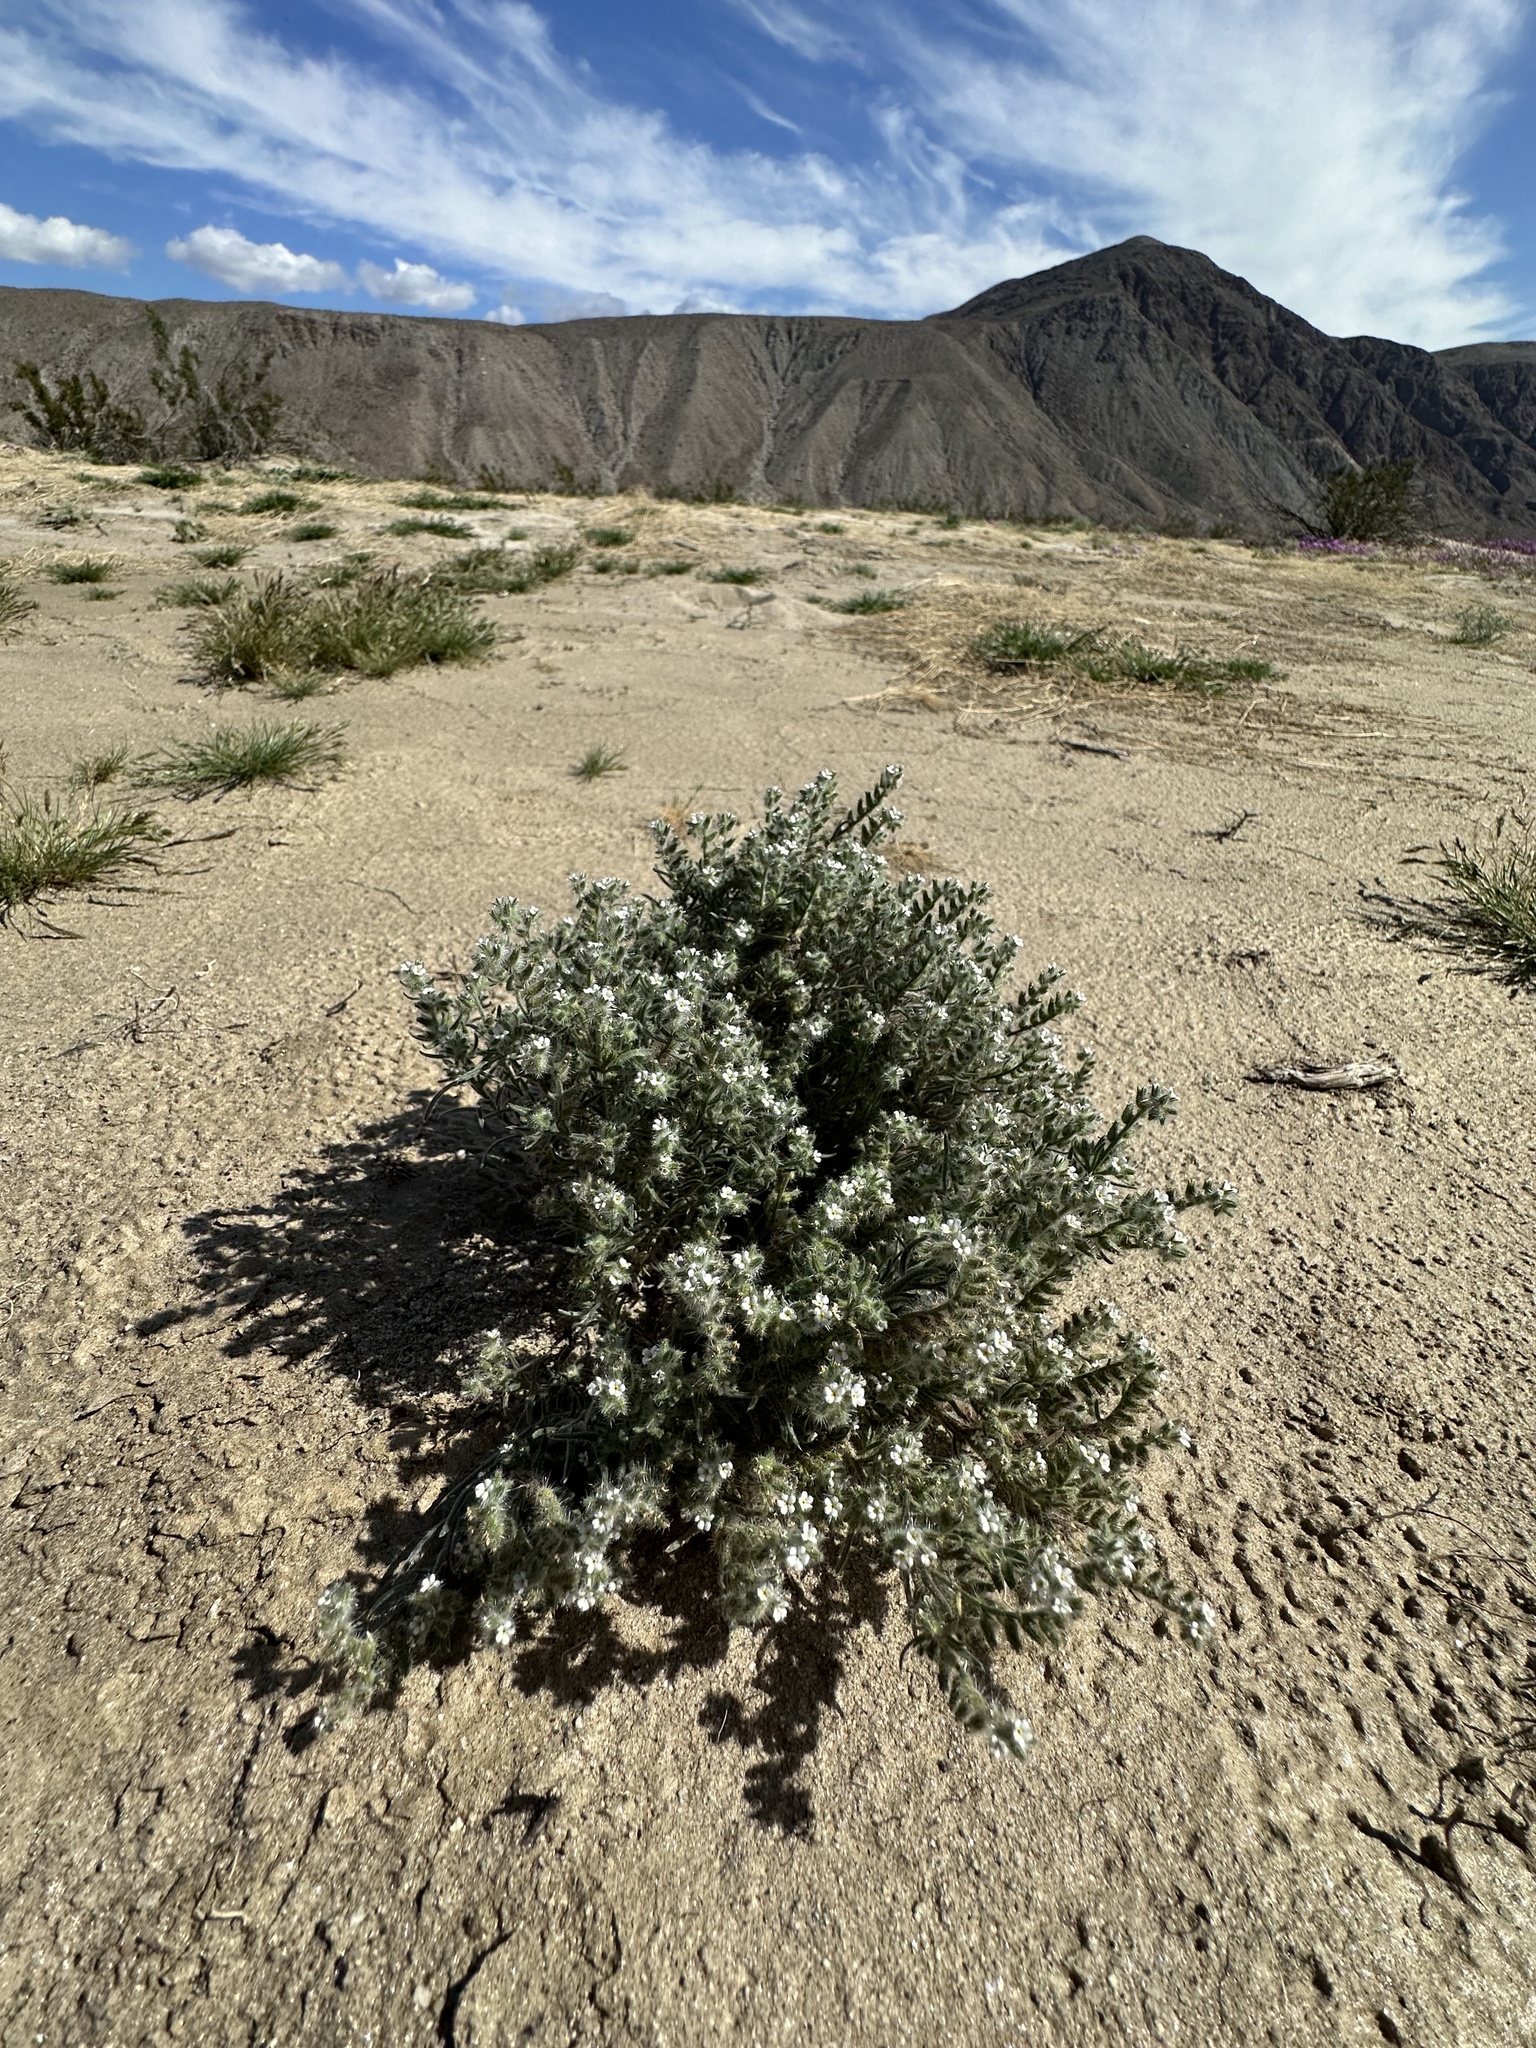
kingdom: Plantae
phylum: Tracheophyta
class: Magnoliopsida
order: Boraginales
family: Boraginaceae
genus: Johnstonella
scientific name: Johnstonella angustifolia
